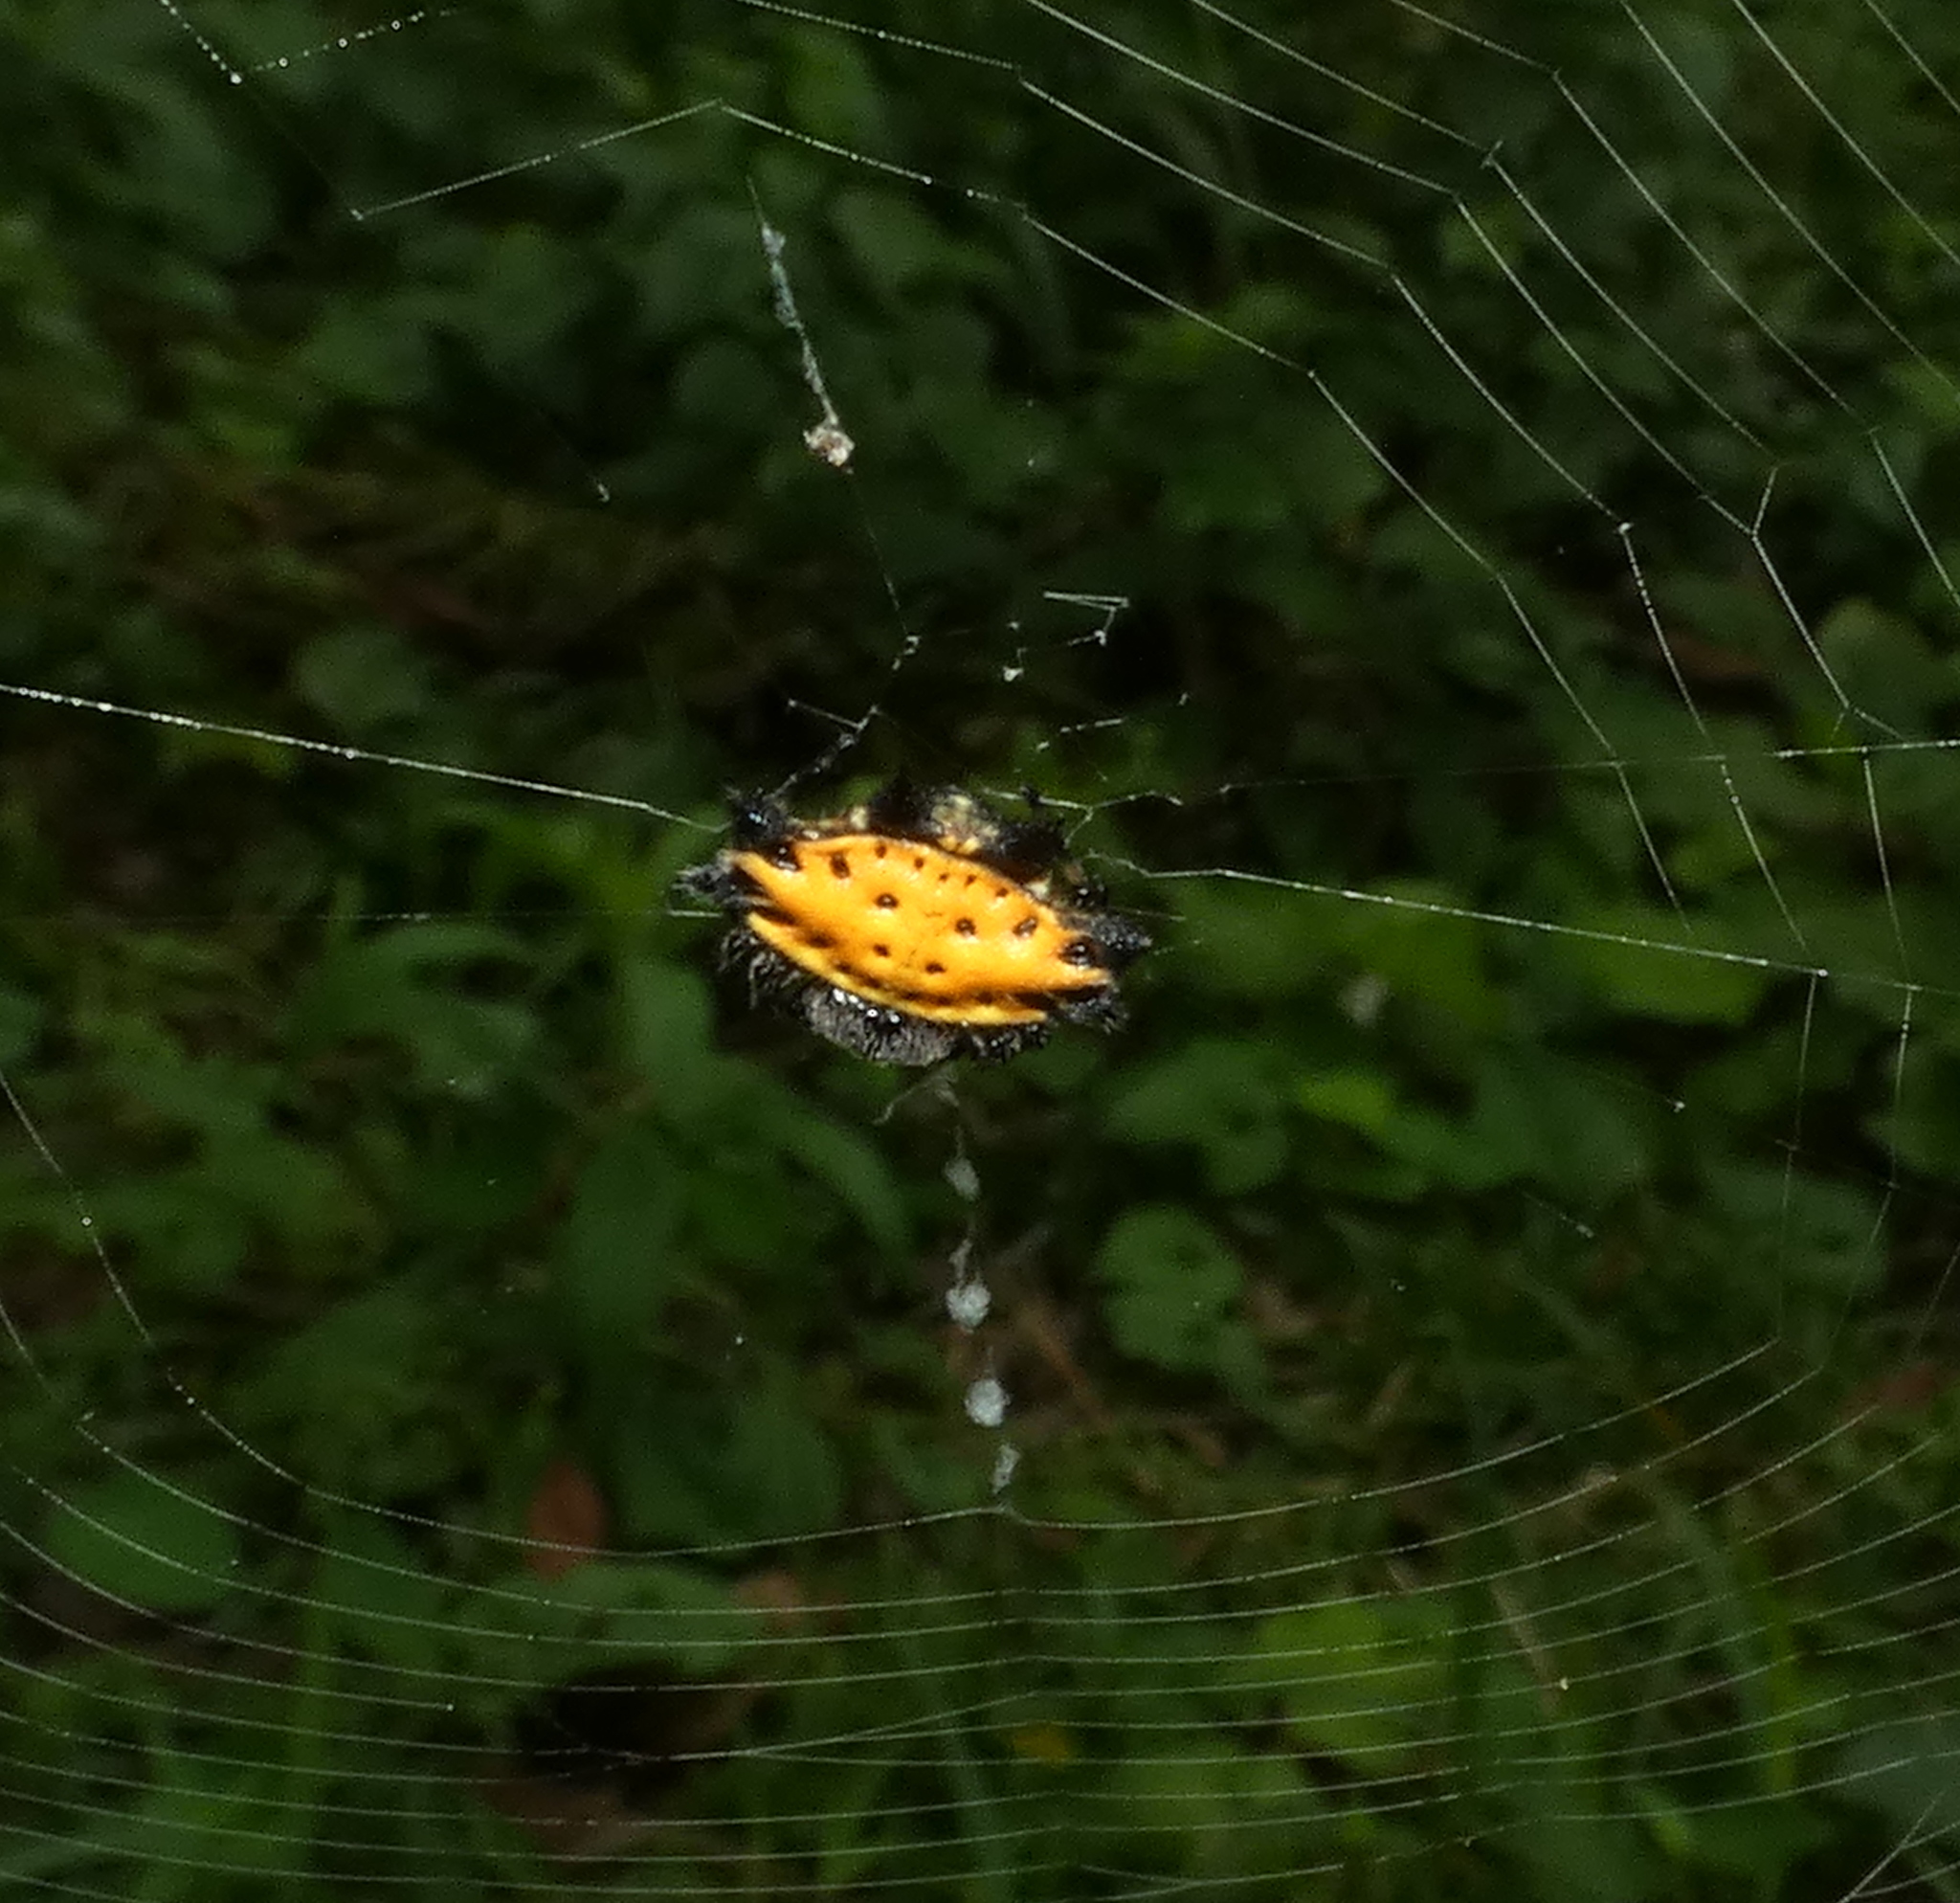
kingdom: Animalia
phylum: Arthropoda
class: Arachnida
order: Araneae
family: Araneidae
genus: Gasteracantha
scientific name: Gasteracantha cancriformis
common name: Orb weavers
